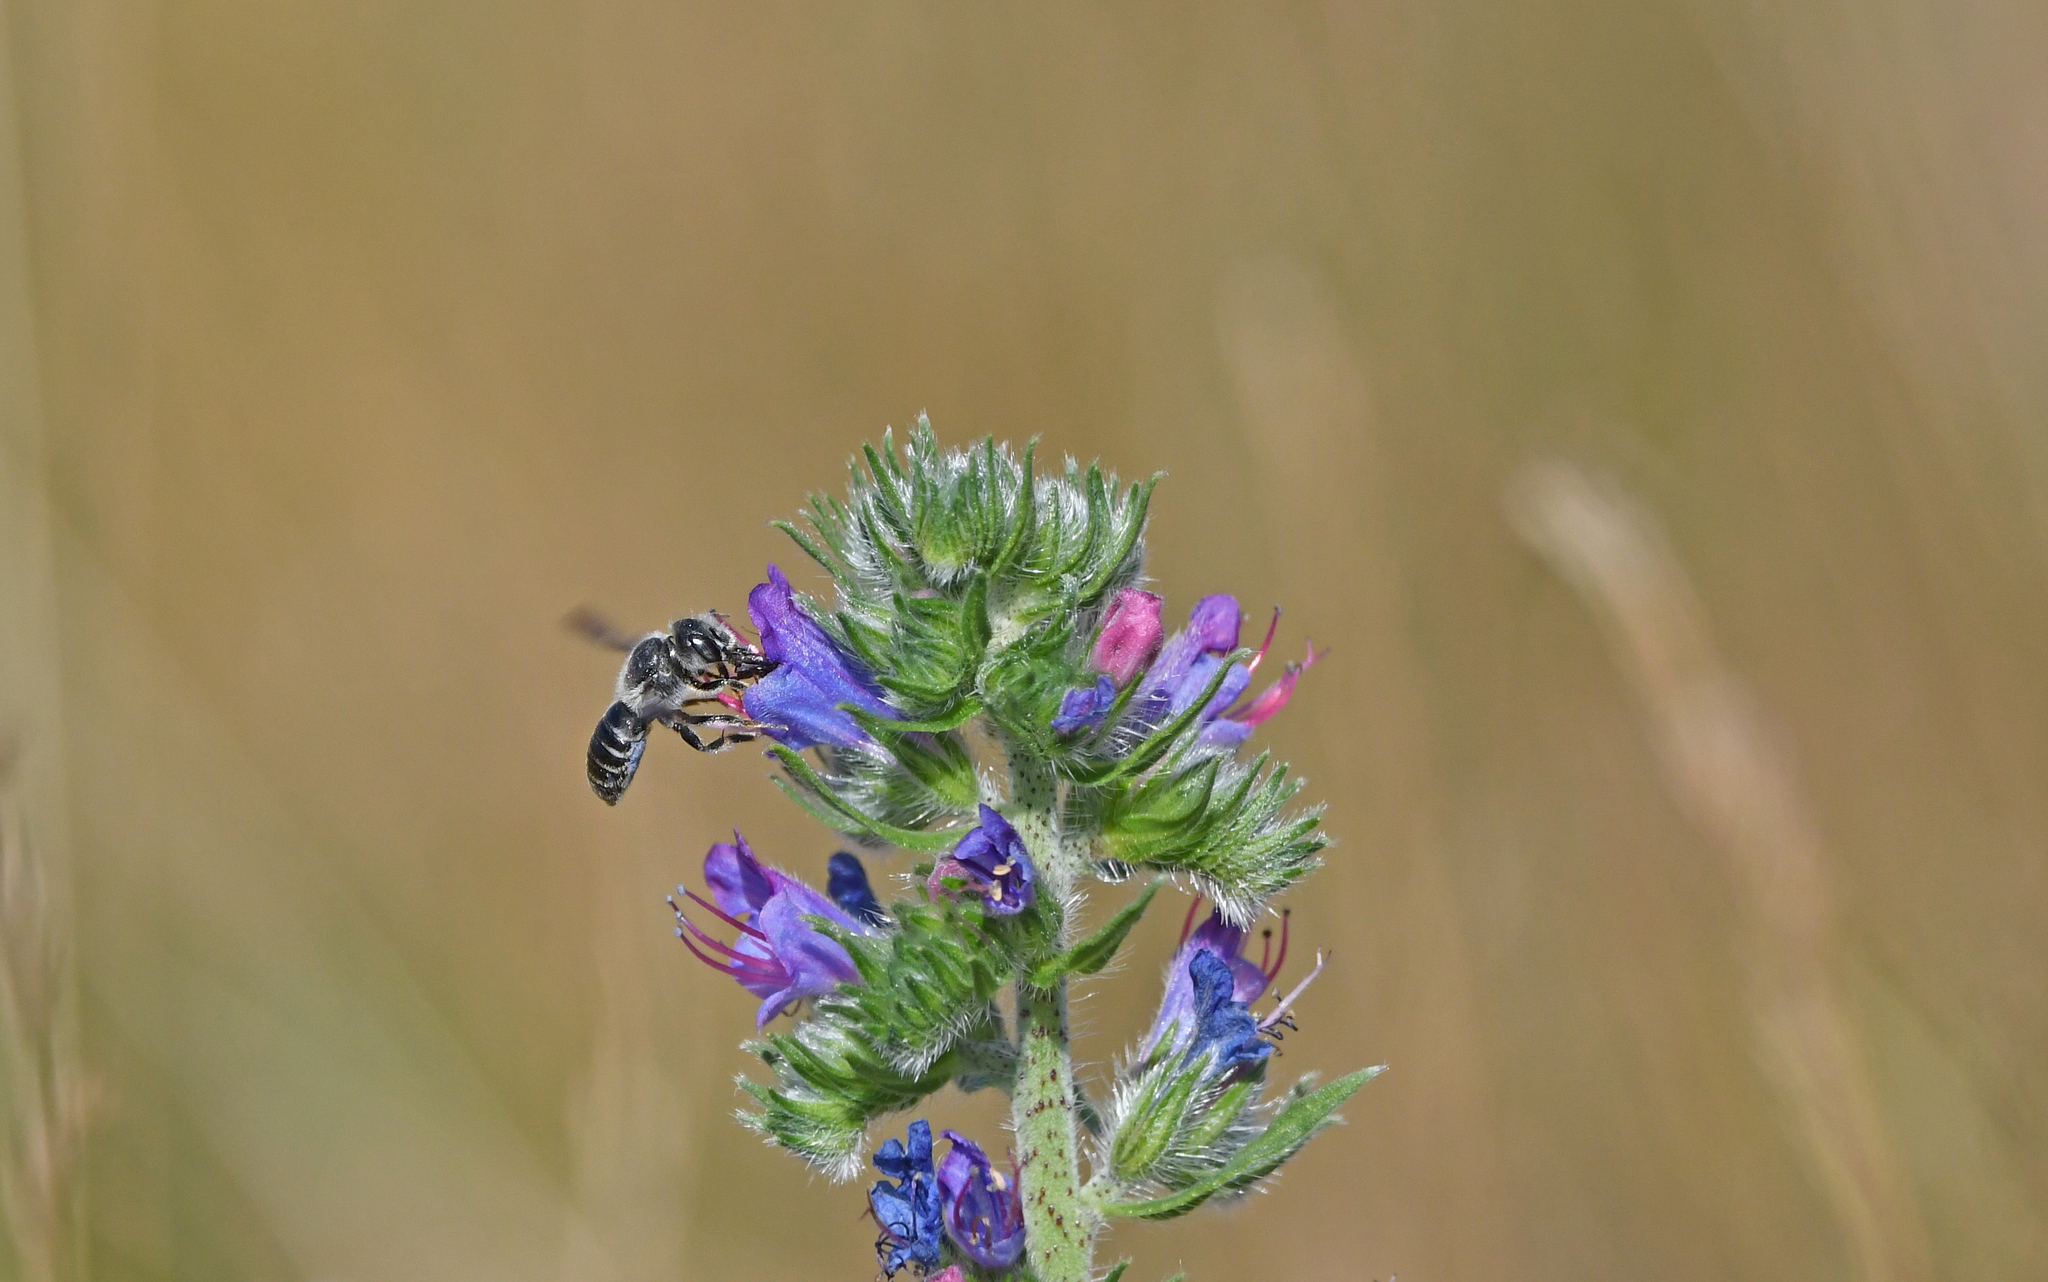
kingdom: Animalia
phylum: Arthropoda
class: Insecta
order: Hymenoptera
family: Megachilidae
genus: Hoplitis
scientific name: Hoplitis adunca
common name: Viper's bugloss mason bee
